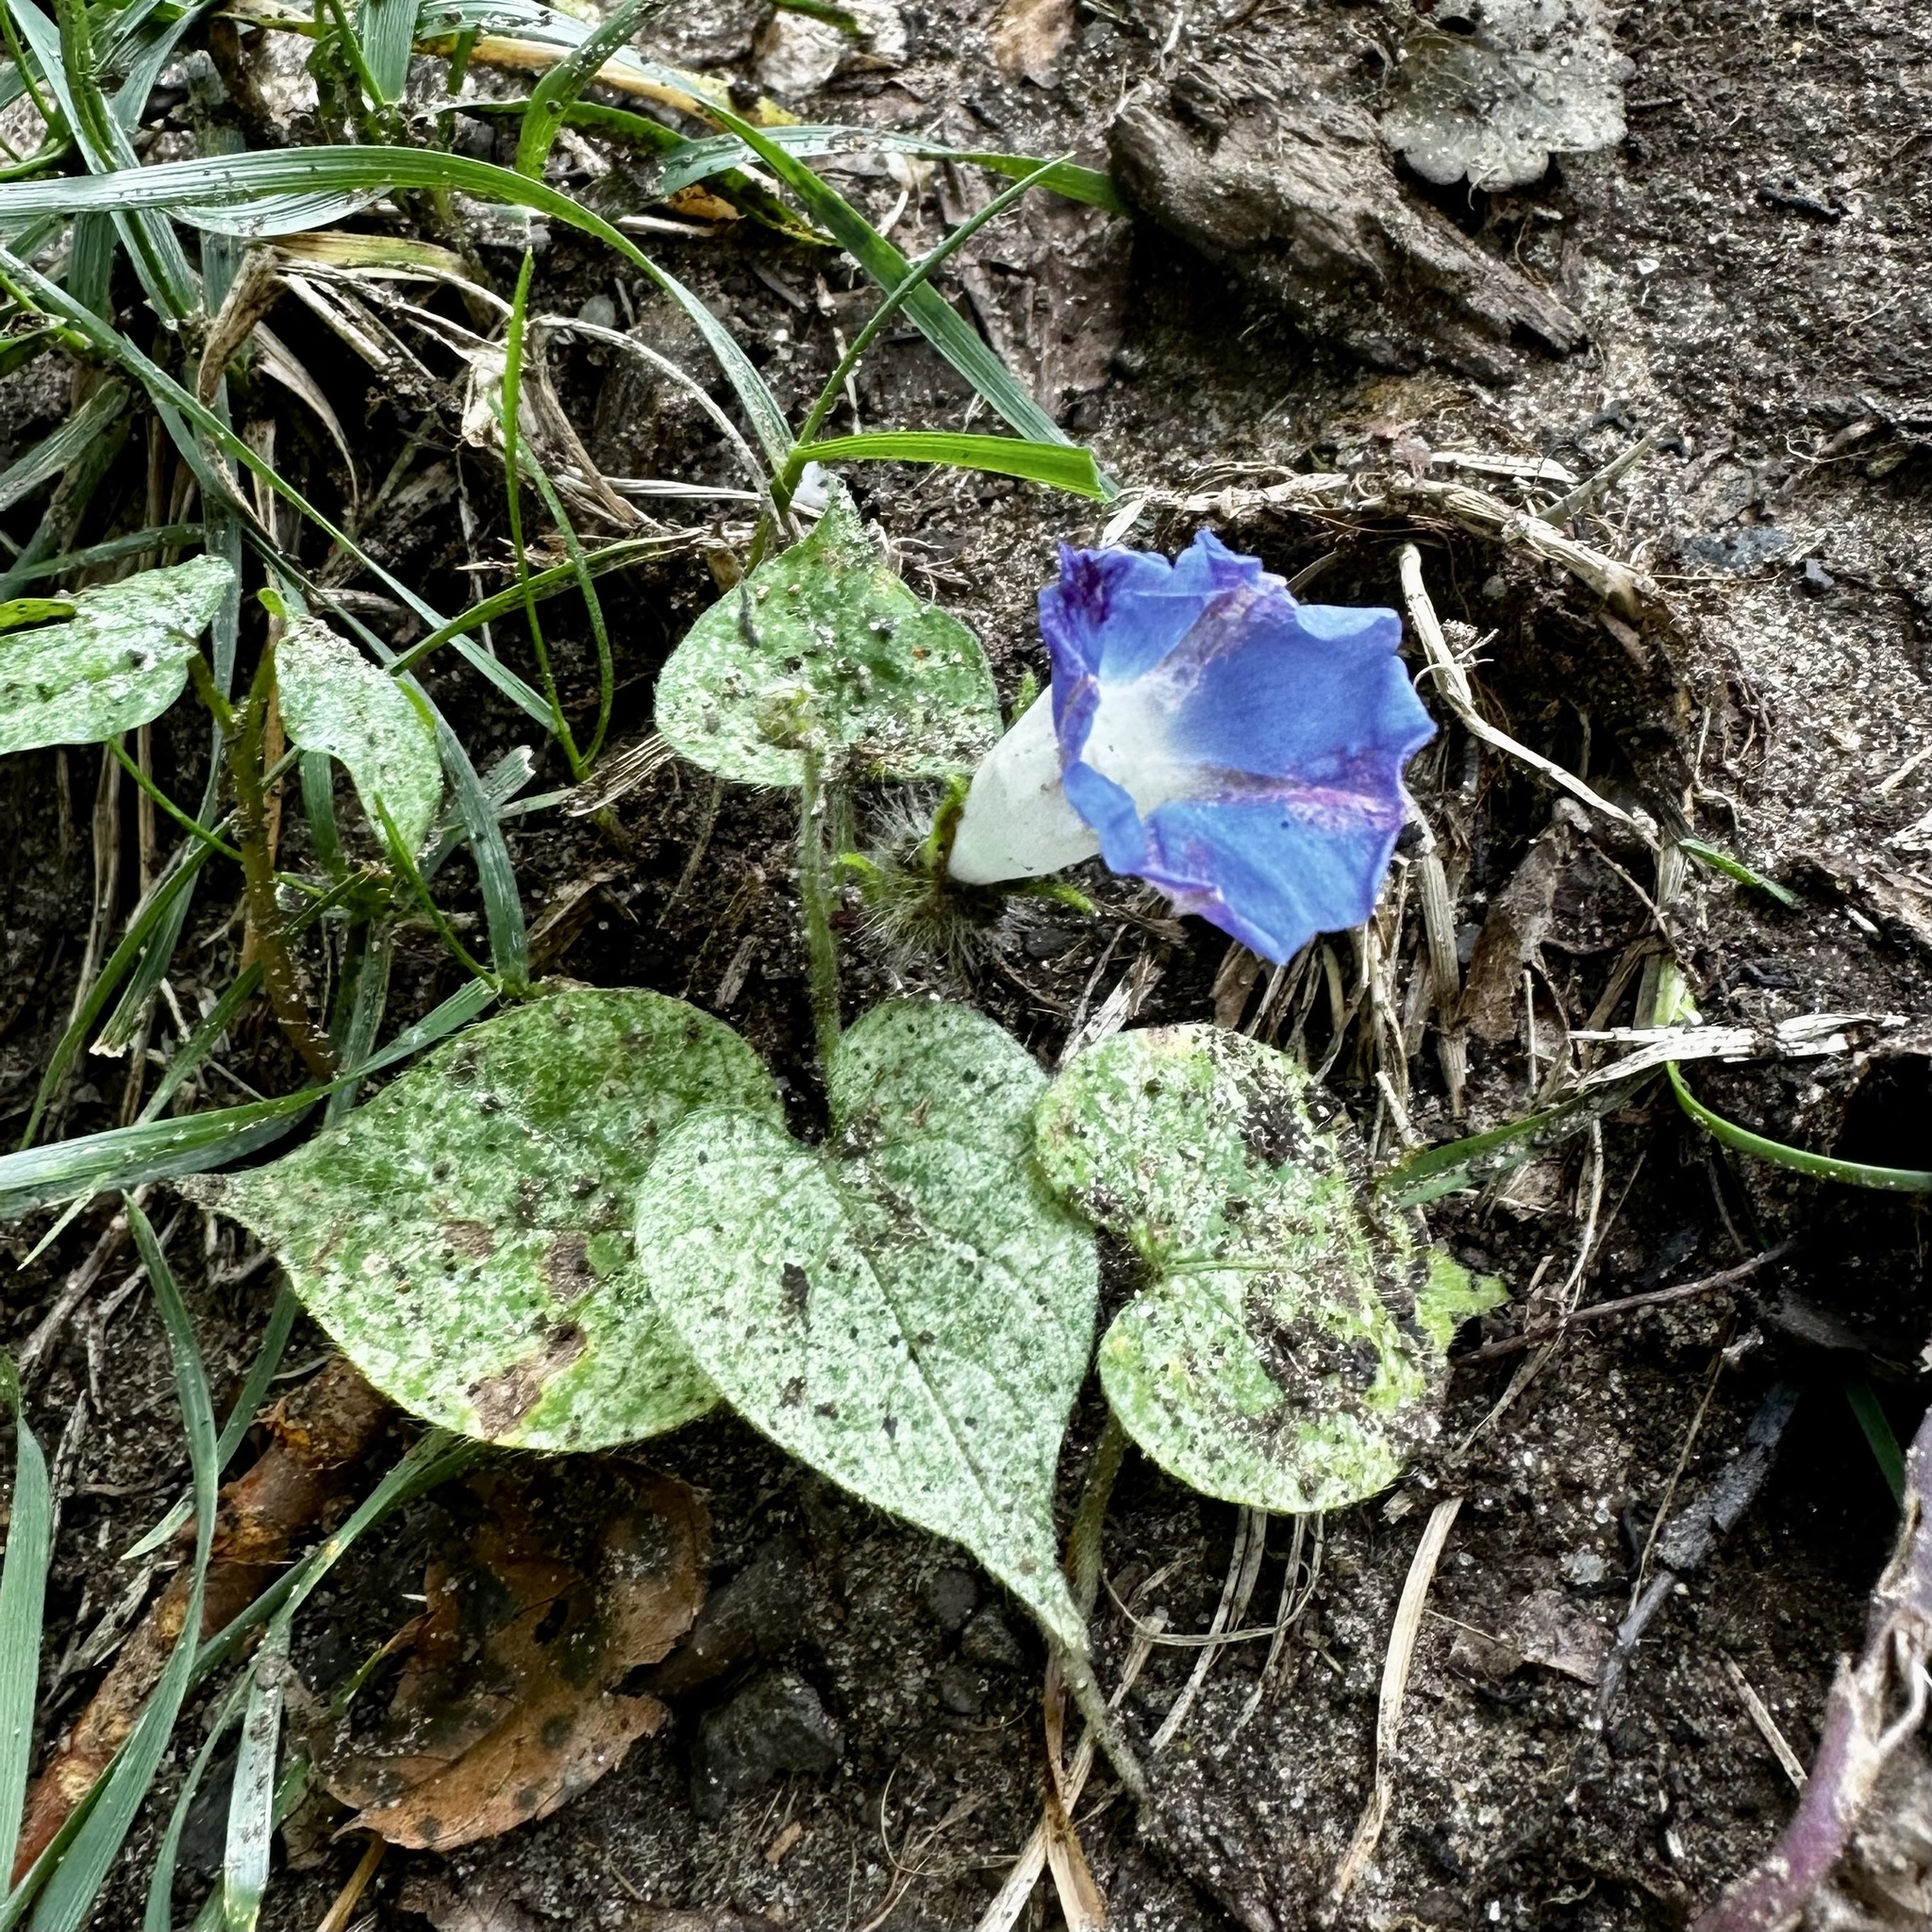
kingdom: Plantae
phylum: Tracheophyta
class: Magnoliopsida
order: Solanales
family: Convolvulaceae
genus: Ipomoea
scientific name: Ipomoea hederacea
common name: Ivy-leaved morning-glory
